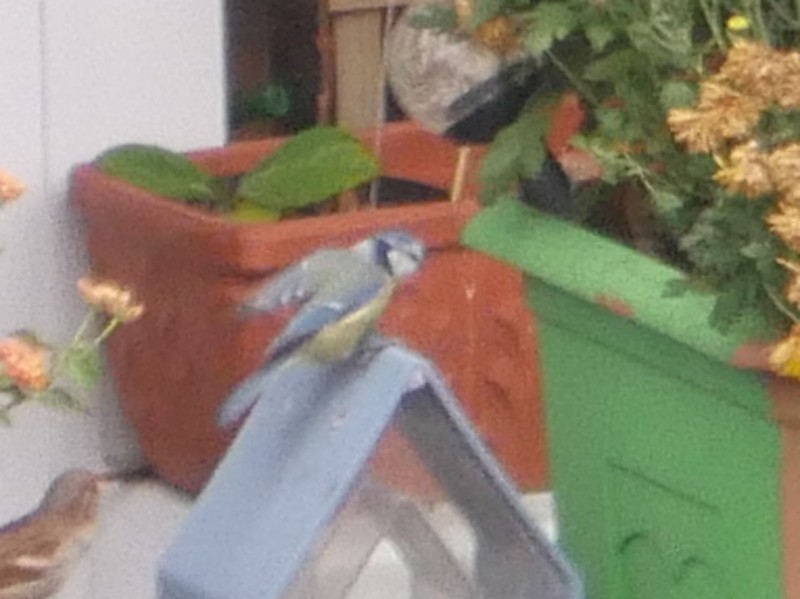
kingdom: Animalia
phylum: Chordata
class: Aves
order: Passeriformes
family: Paridae
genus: Cyanistes
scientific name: Cyanistes caeruleus
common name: Eurasian blue tit
